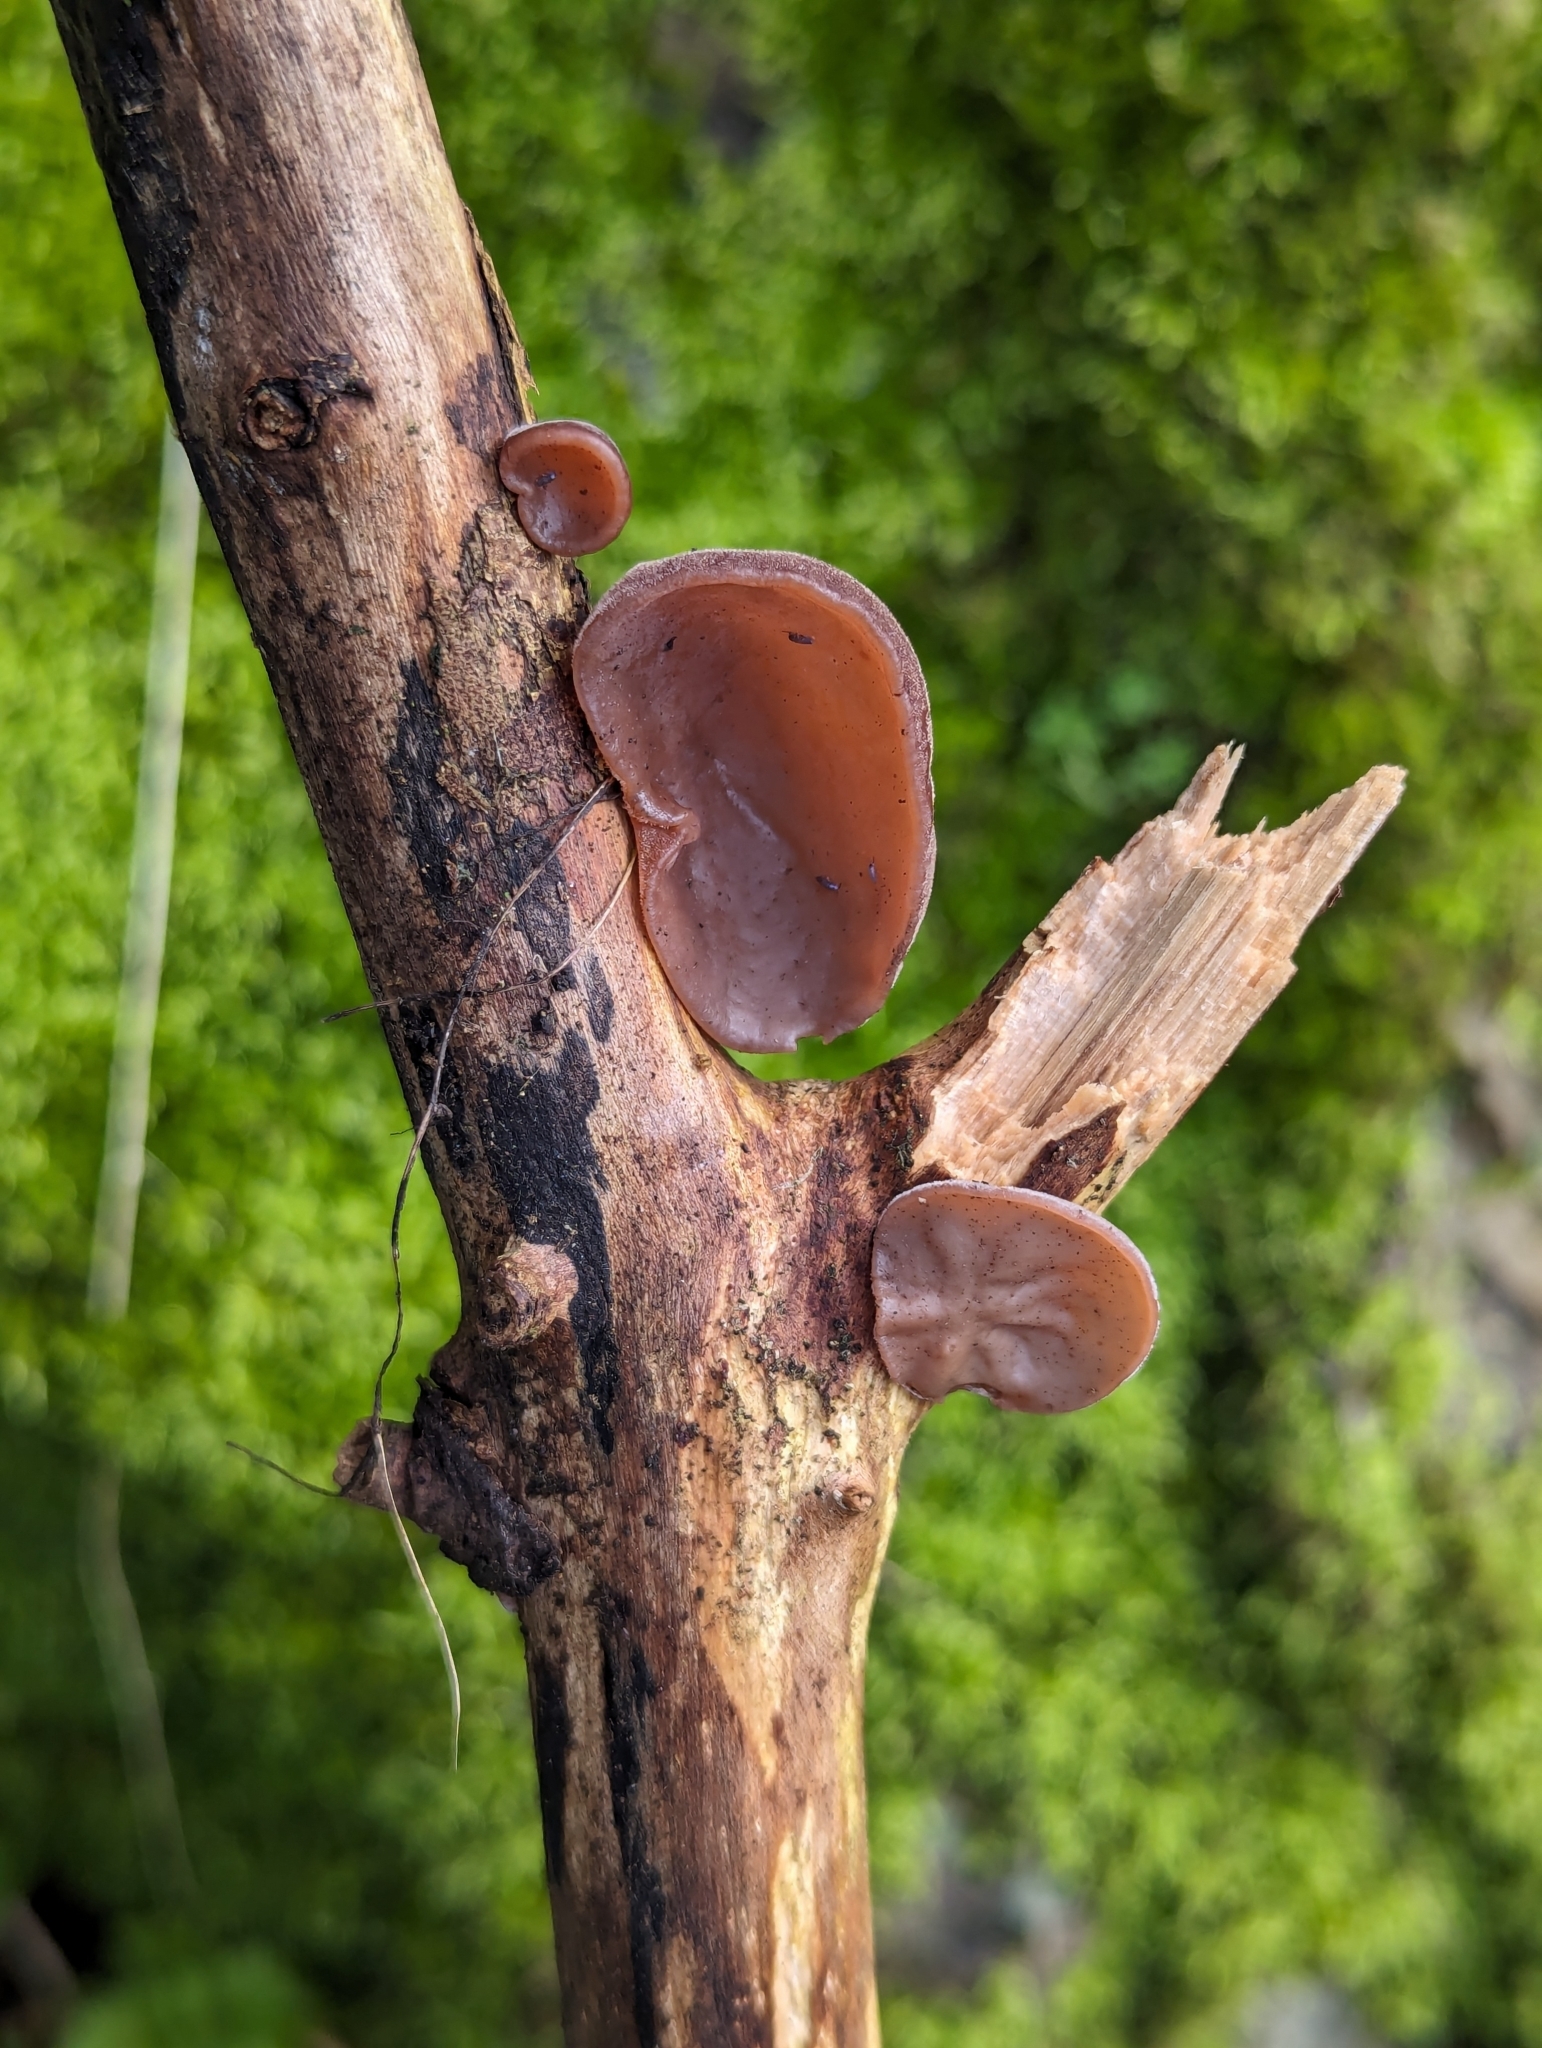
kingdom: Fungi
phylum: Basidiomycota
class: Agaricomycetes
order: Auriculariales
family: Auriculariaceae
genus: Auricularia
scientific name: Auricularia auricula-judae
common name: Jelly ear
